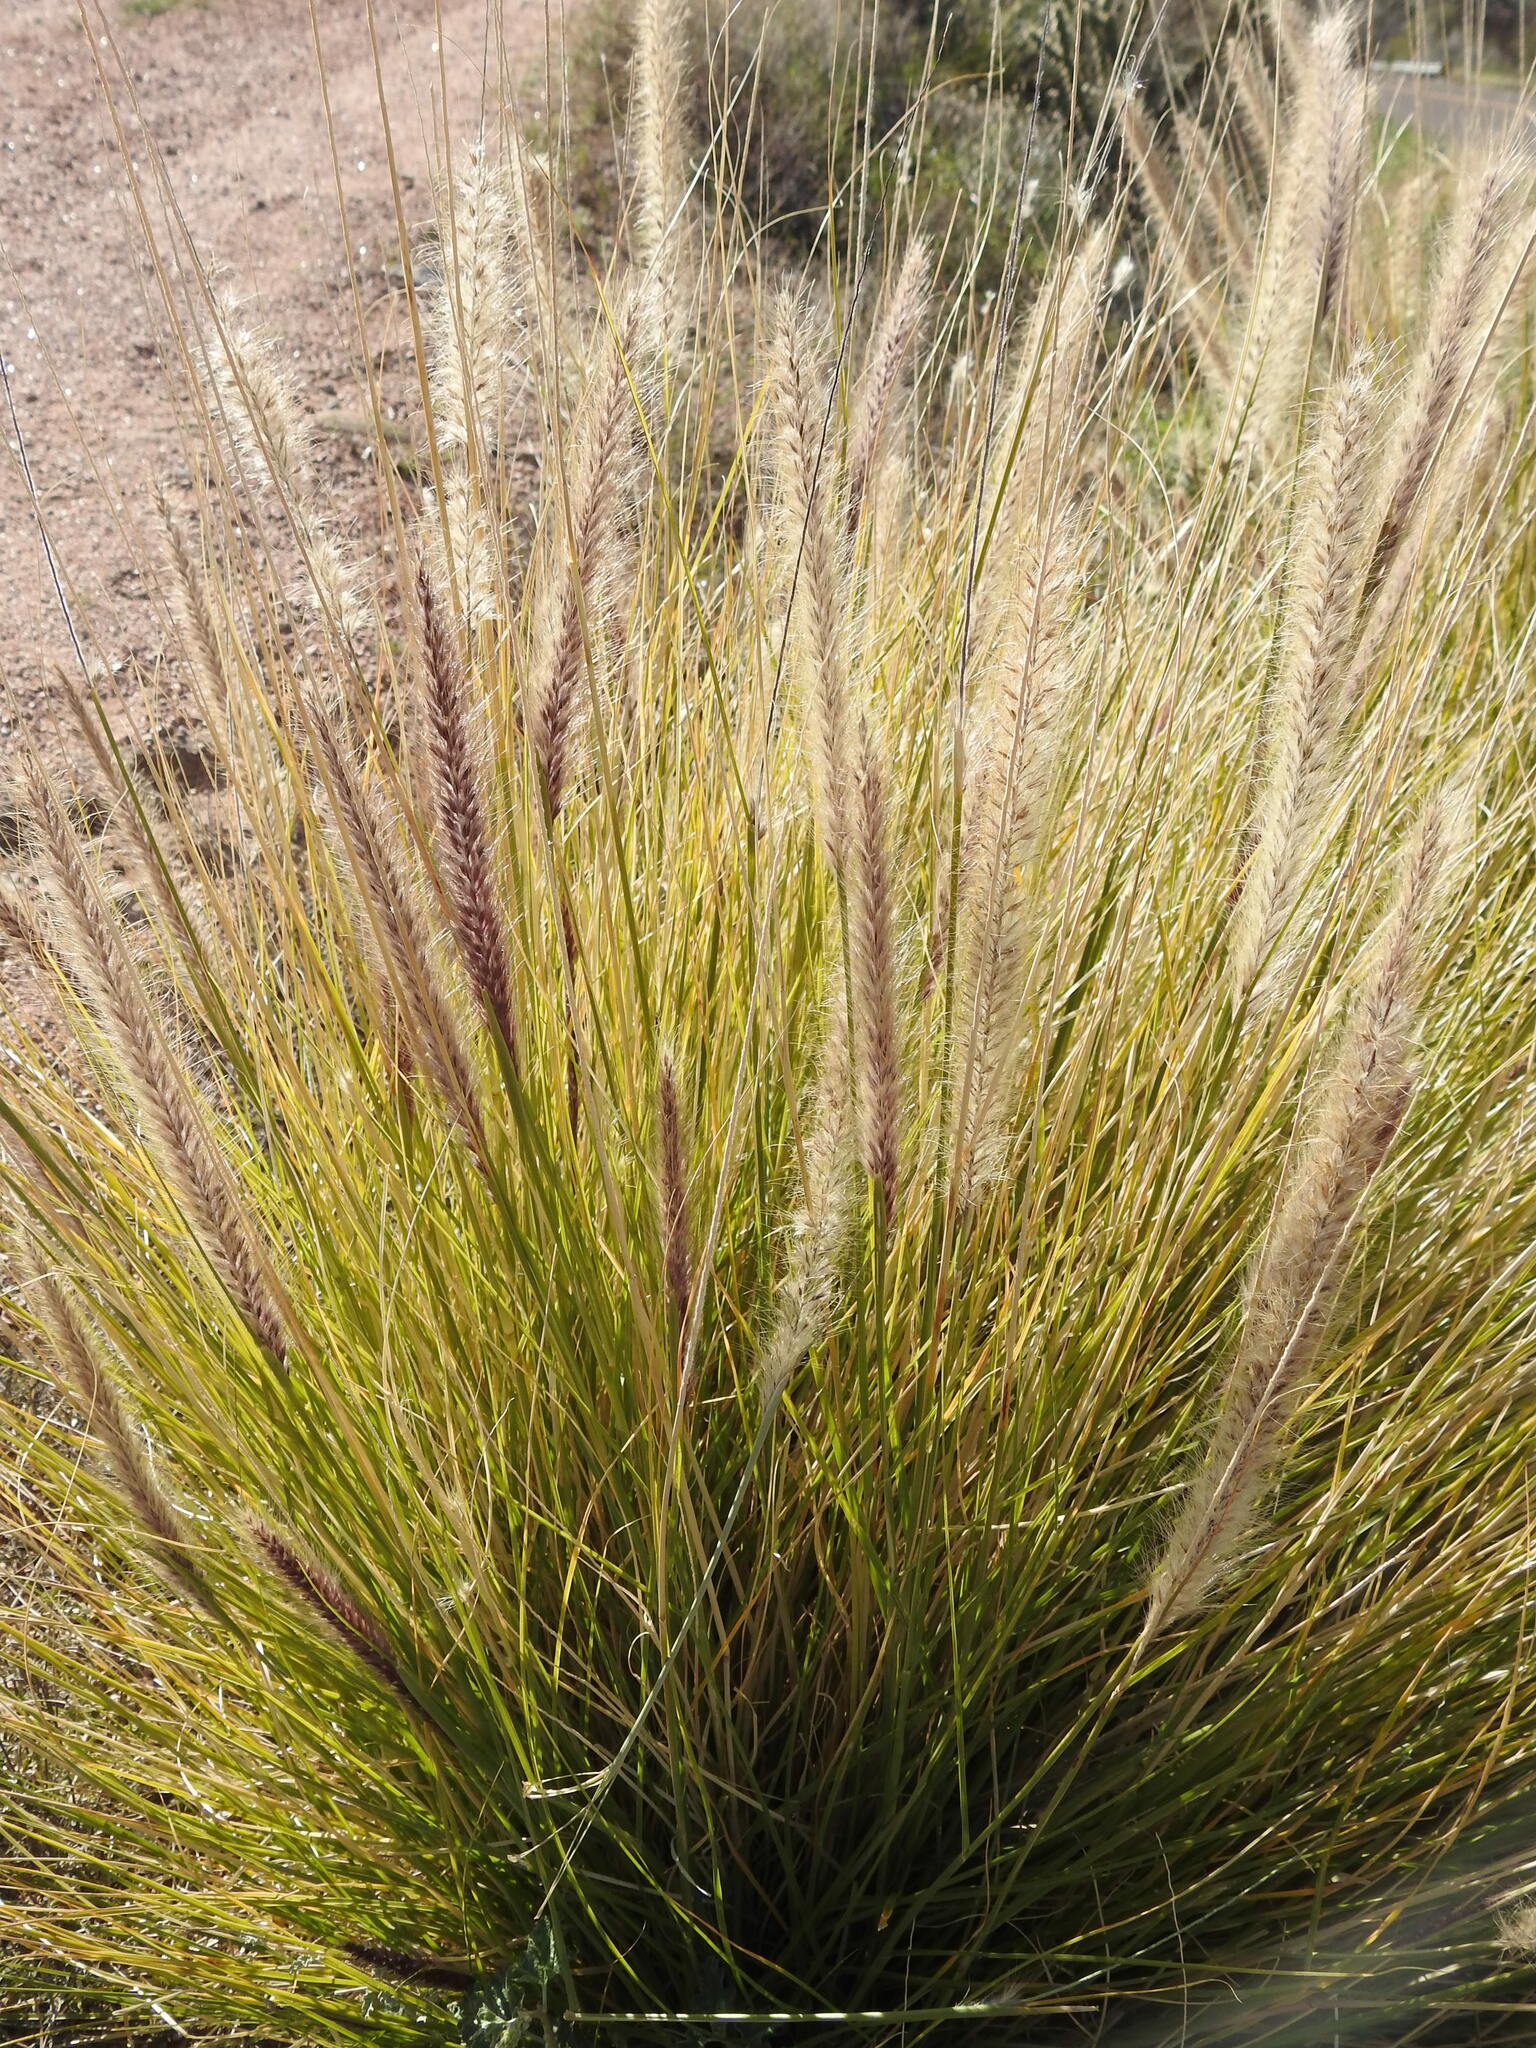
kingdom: Plantae
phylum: Tracheophyta
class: Liliopsida
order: Poales
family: Poaceae
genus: Cenchrus
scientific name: Cenchrus setaceus
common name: Crimson fountaingrass
